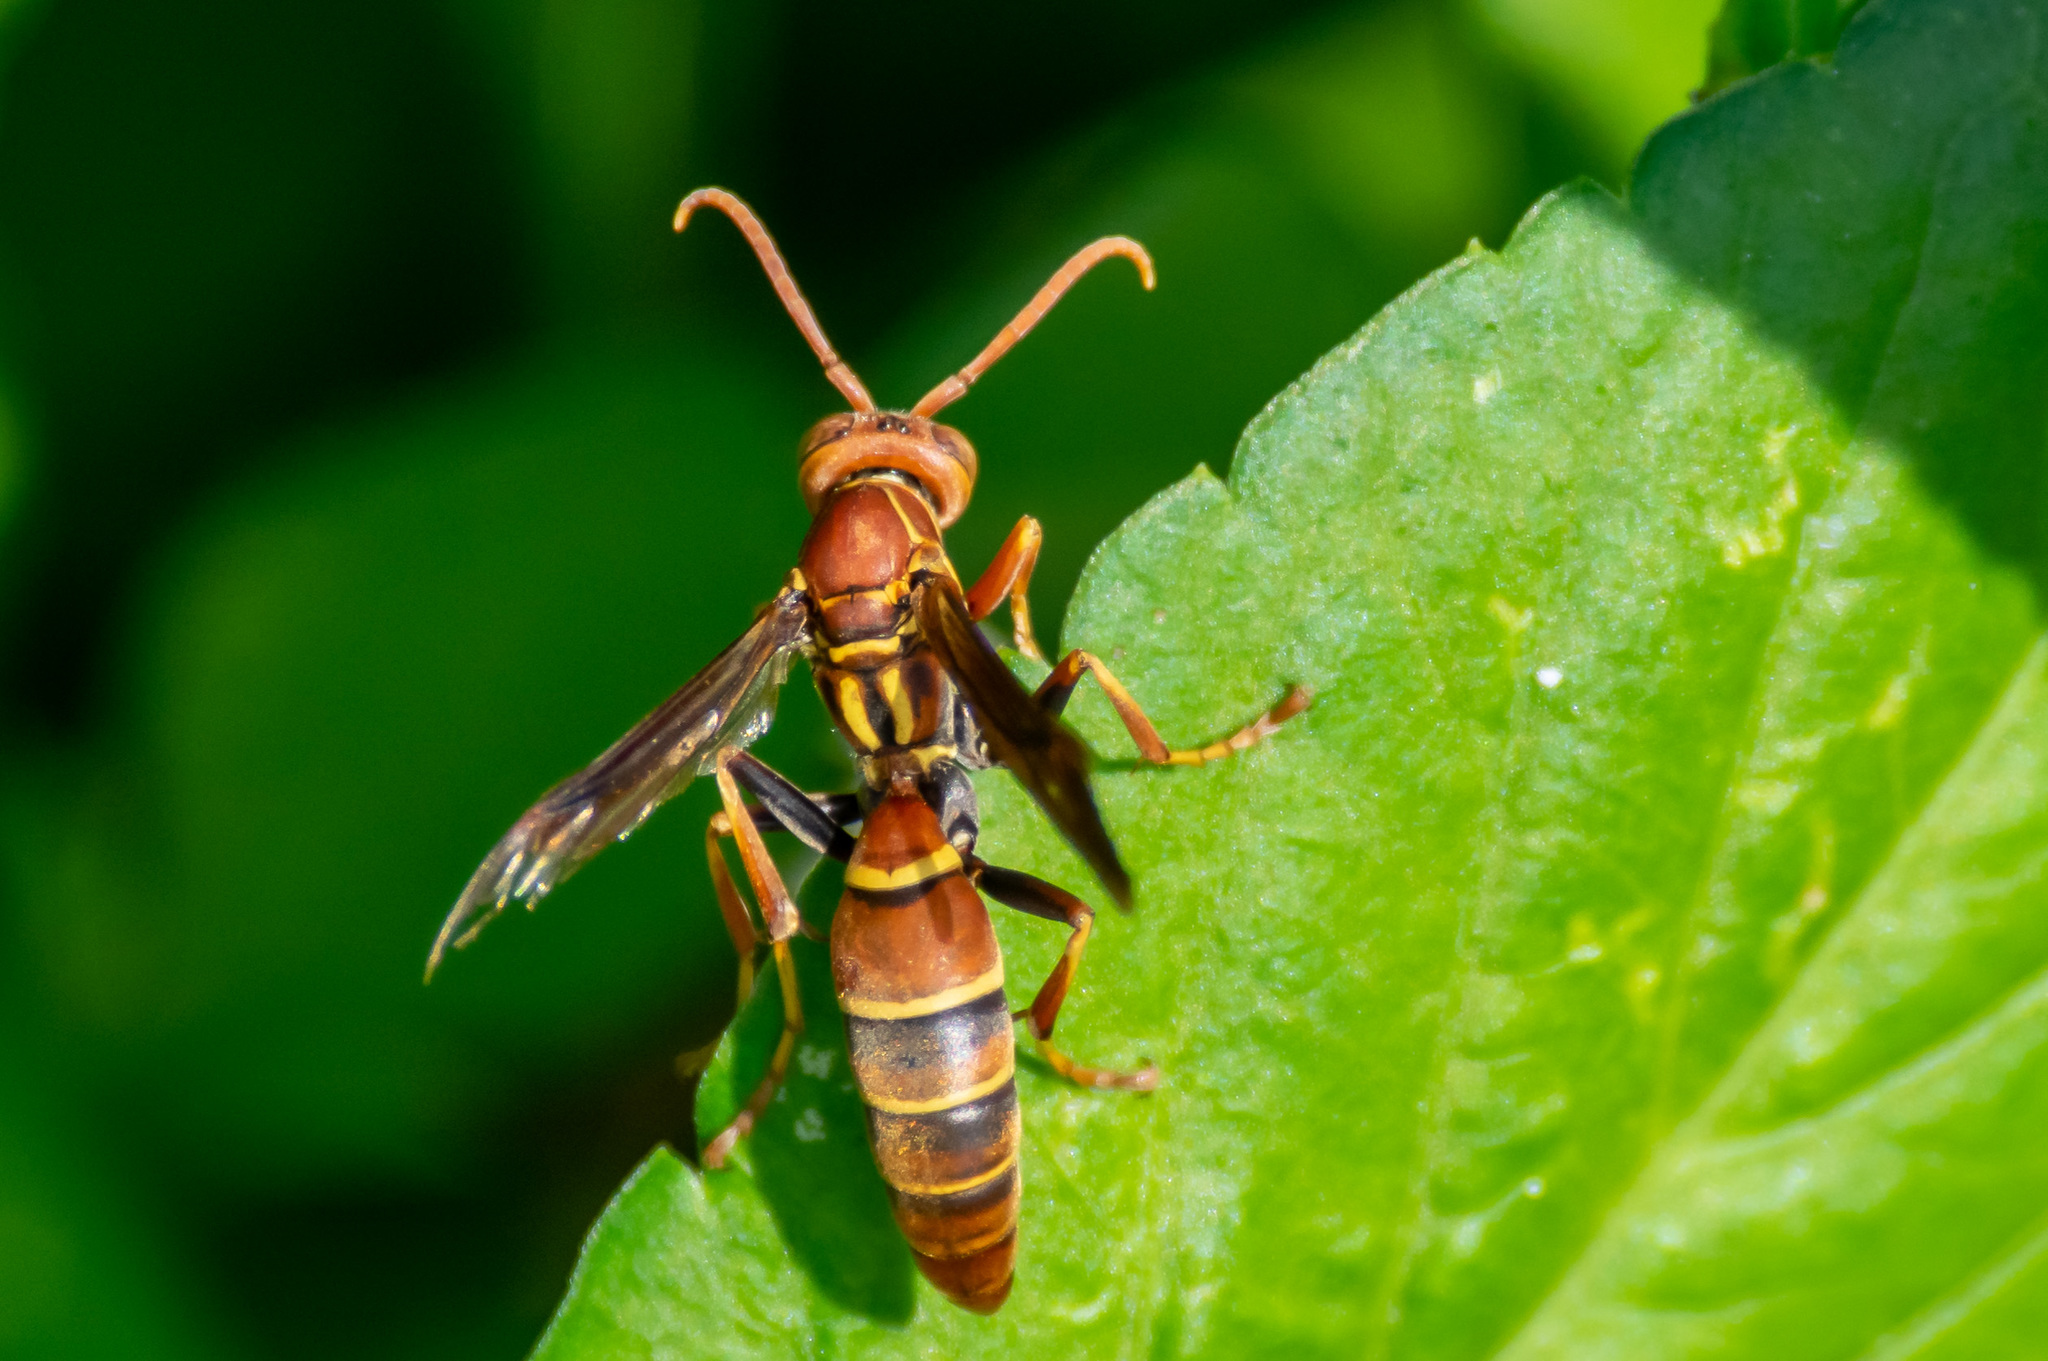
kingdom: Animalia
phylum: Arthropoda
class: Insecta
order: Hymenoptera
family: Eumenidae
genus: Polistes
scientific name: Polistes dorsalis
